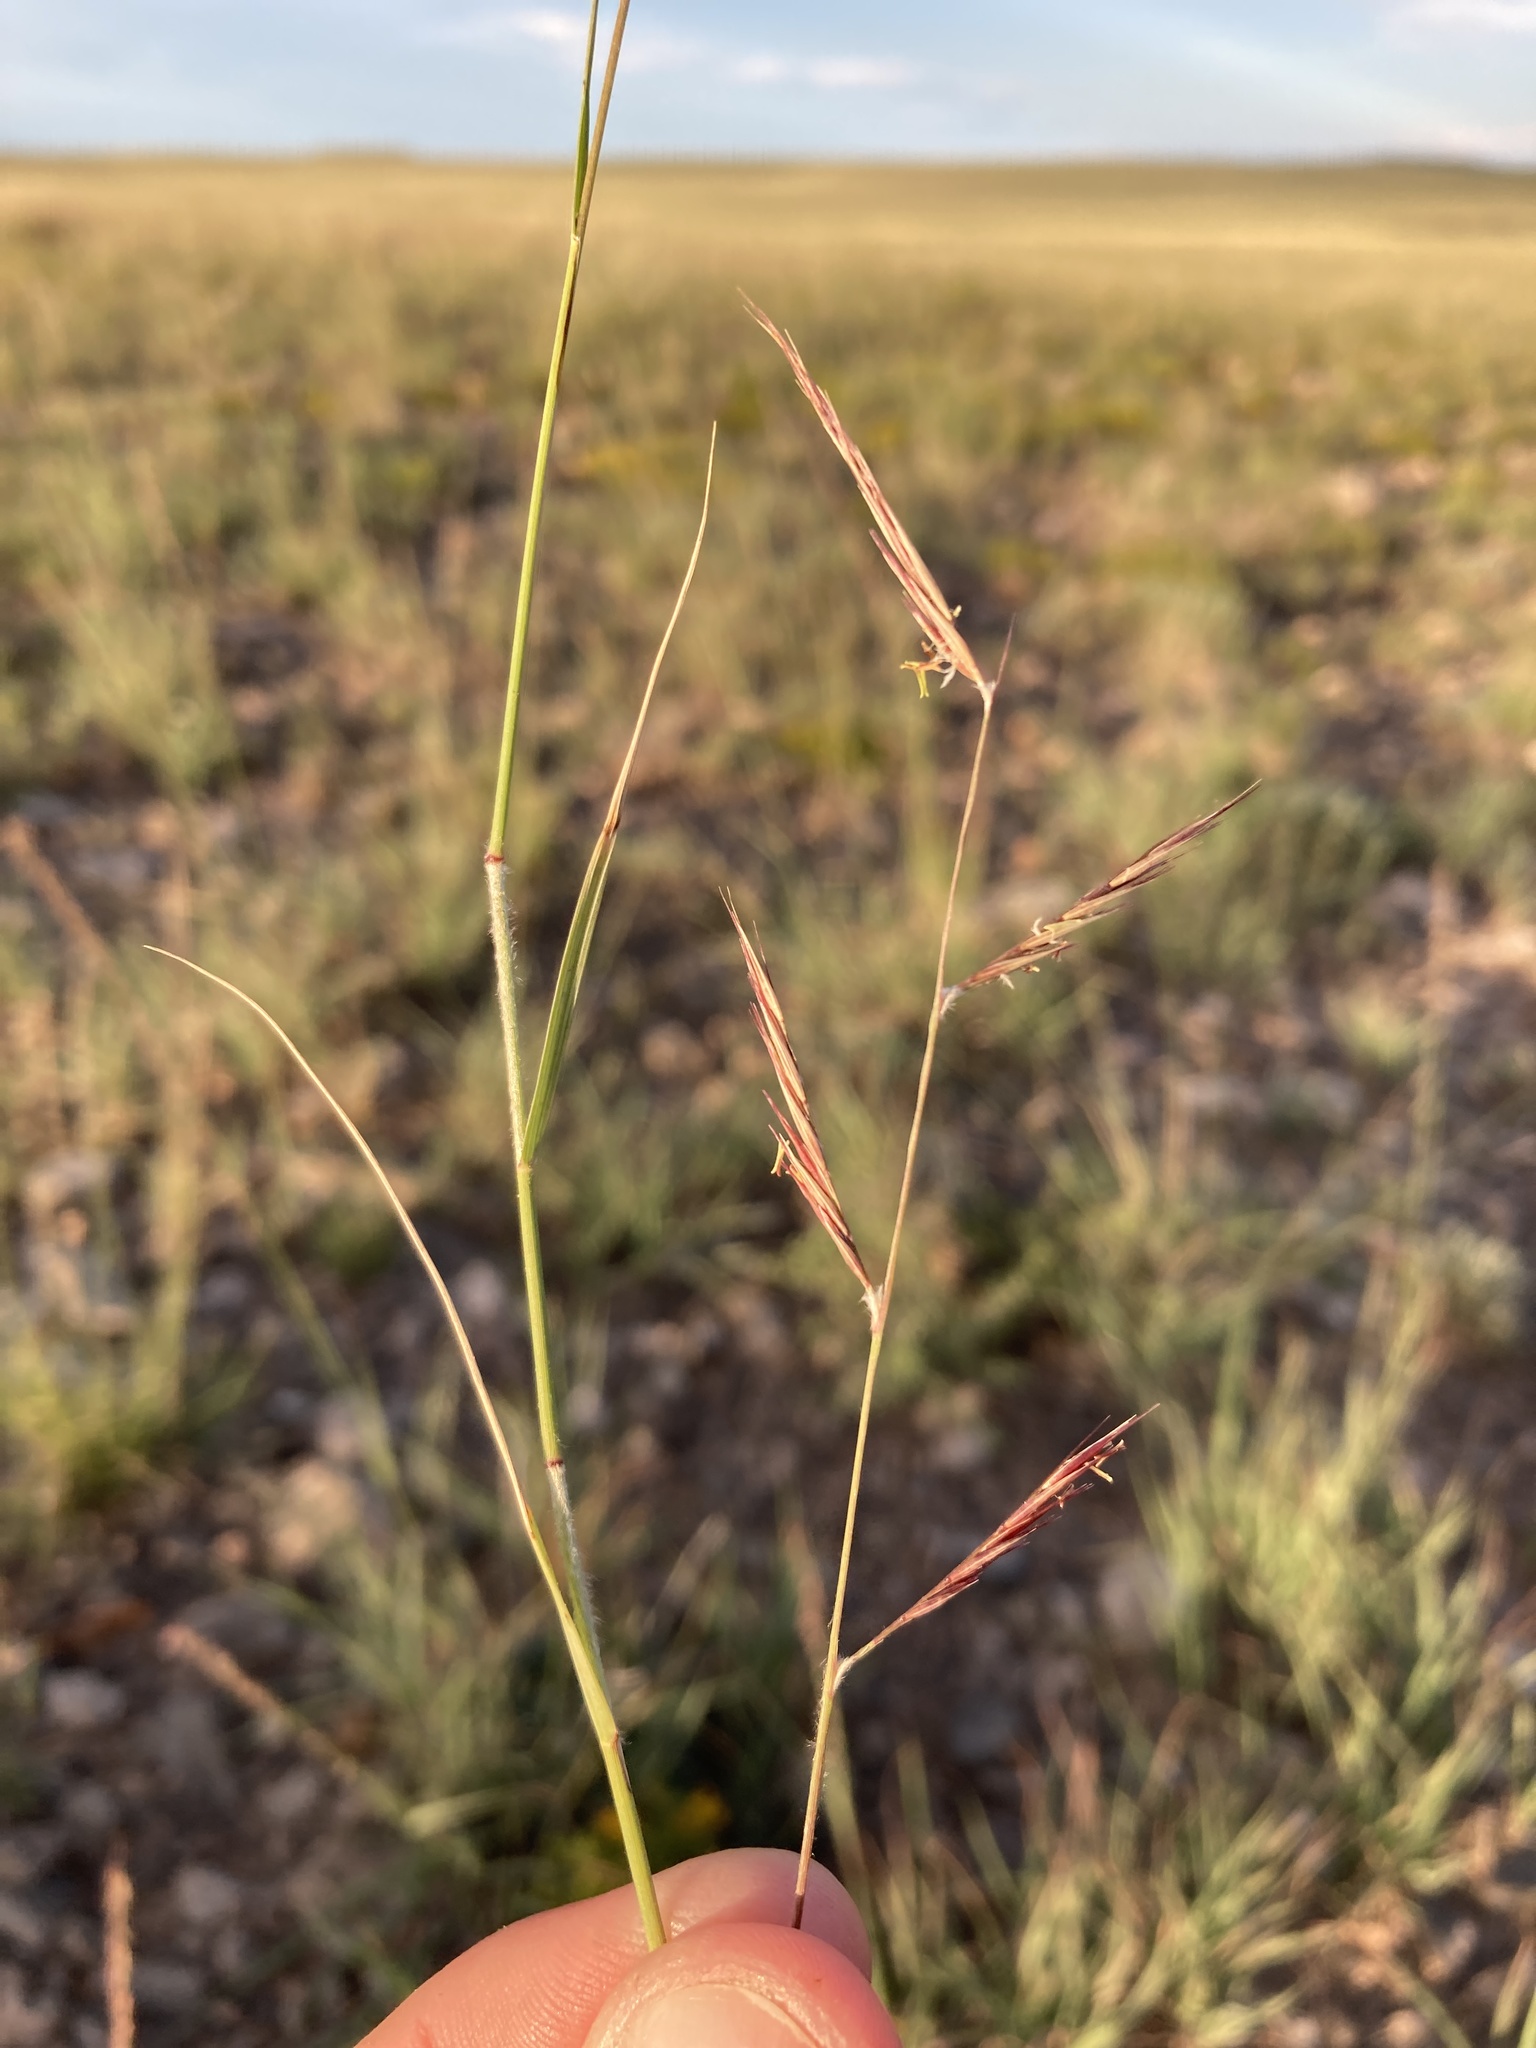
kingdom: Plantae
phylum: Tracheophyta
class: Liliopsida
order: Poales
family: Poaceae
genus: Bouteloua
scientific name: Bouteloua eriopoda
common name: Woolly foot grama
